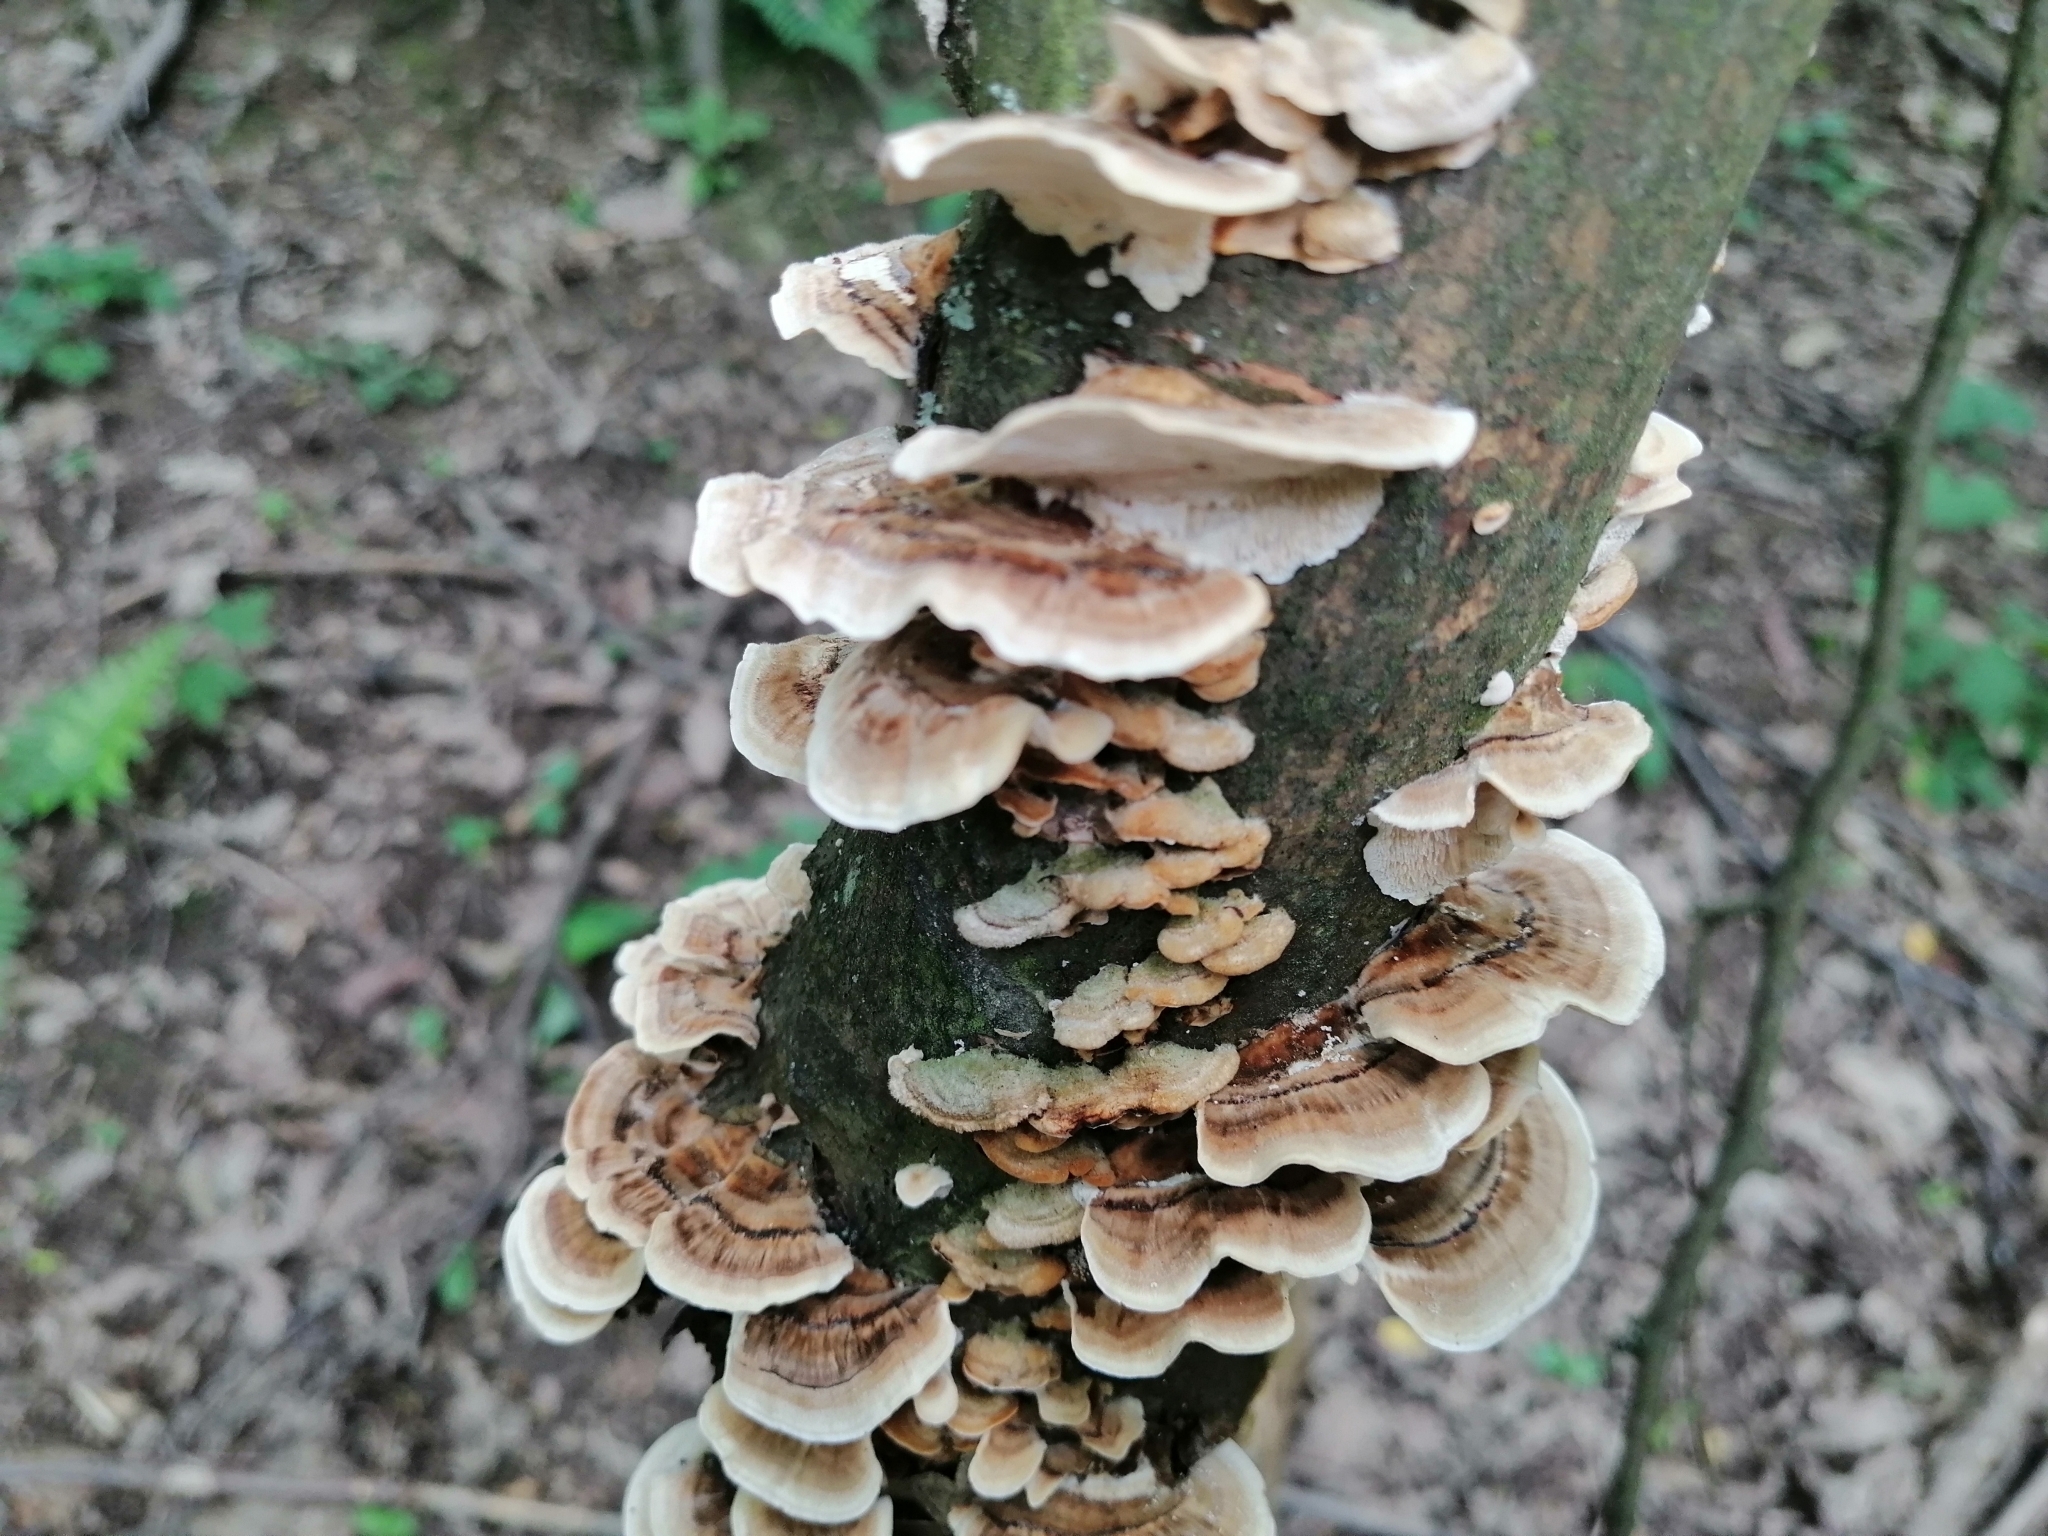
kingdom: Fungi
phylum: Basidiomycota
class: Agaricomycetes
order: Polyporales
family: Polyporaceae
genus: Trametes
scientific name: Trametes versicolor
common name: Turkeytail
